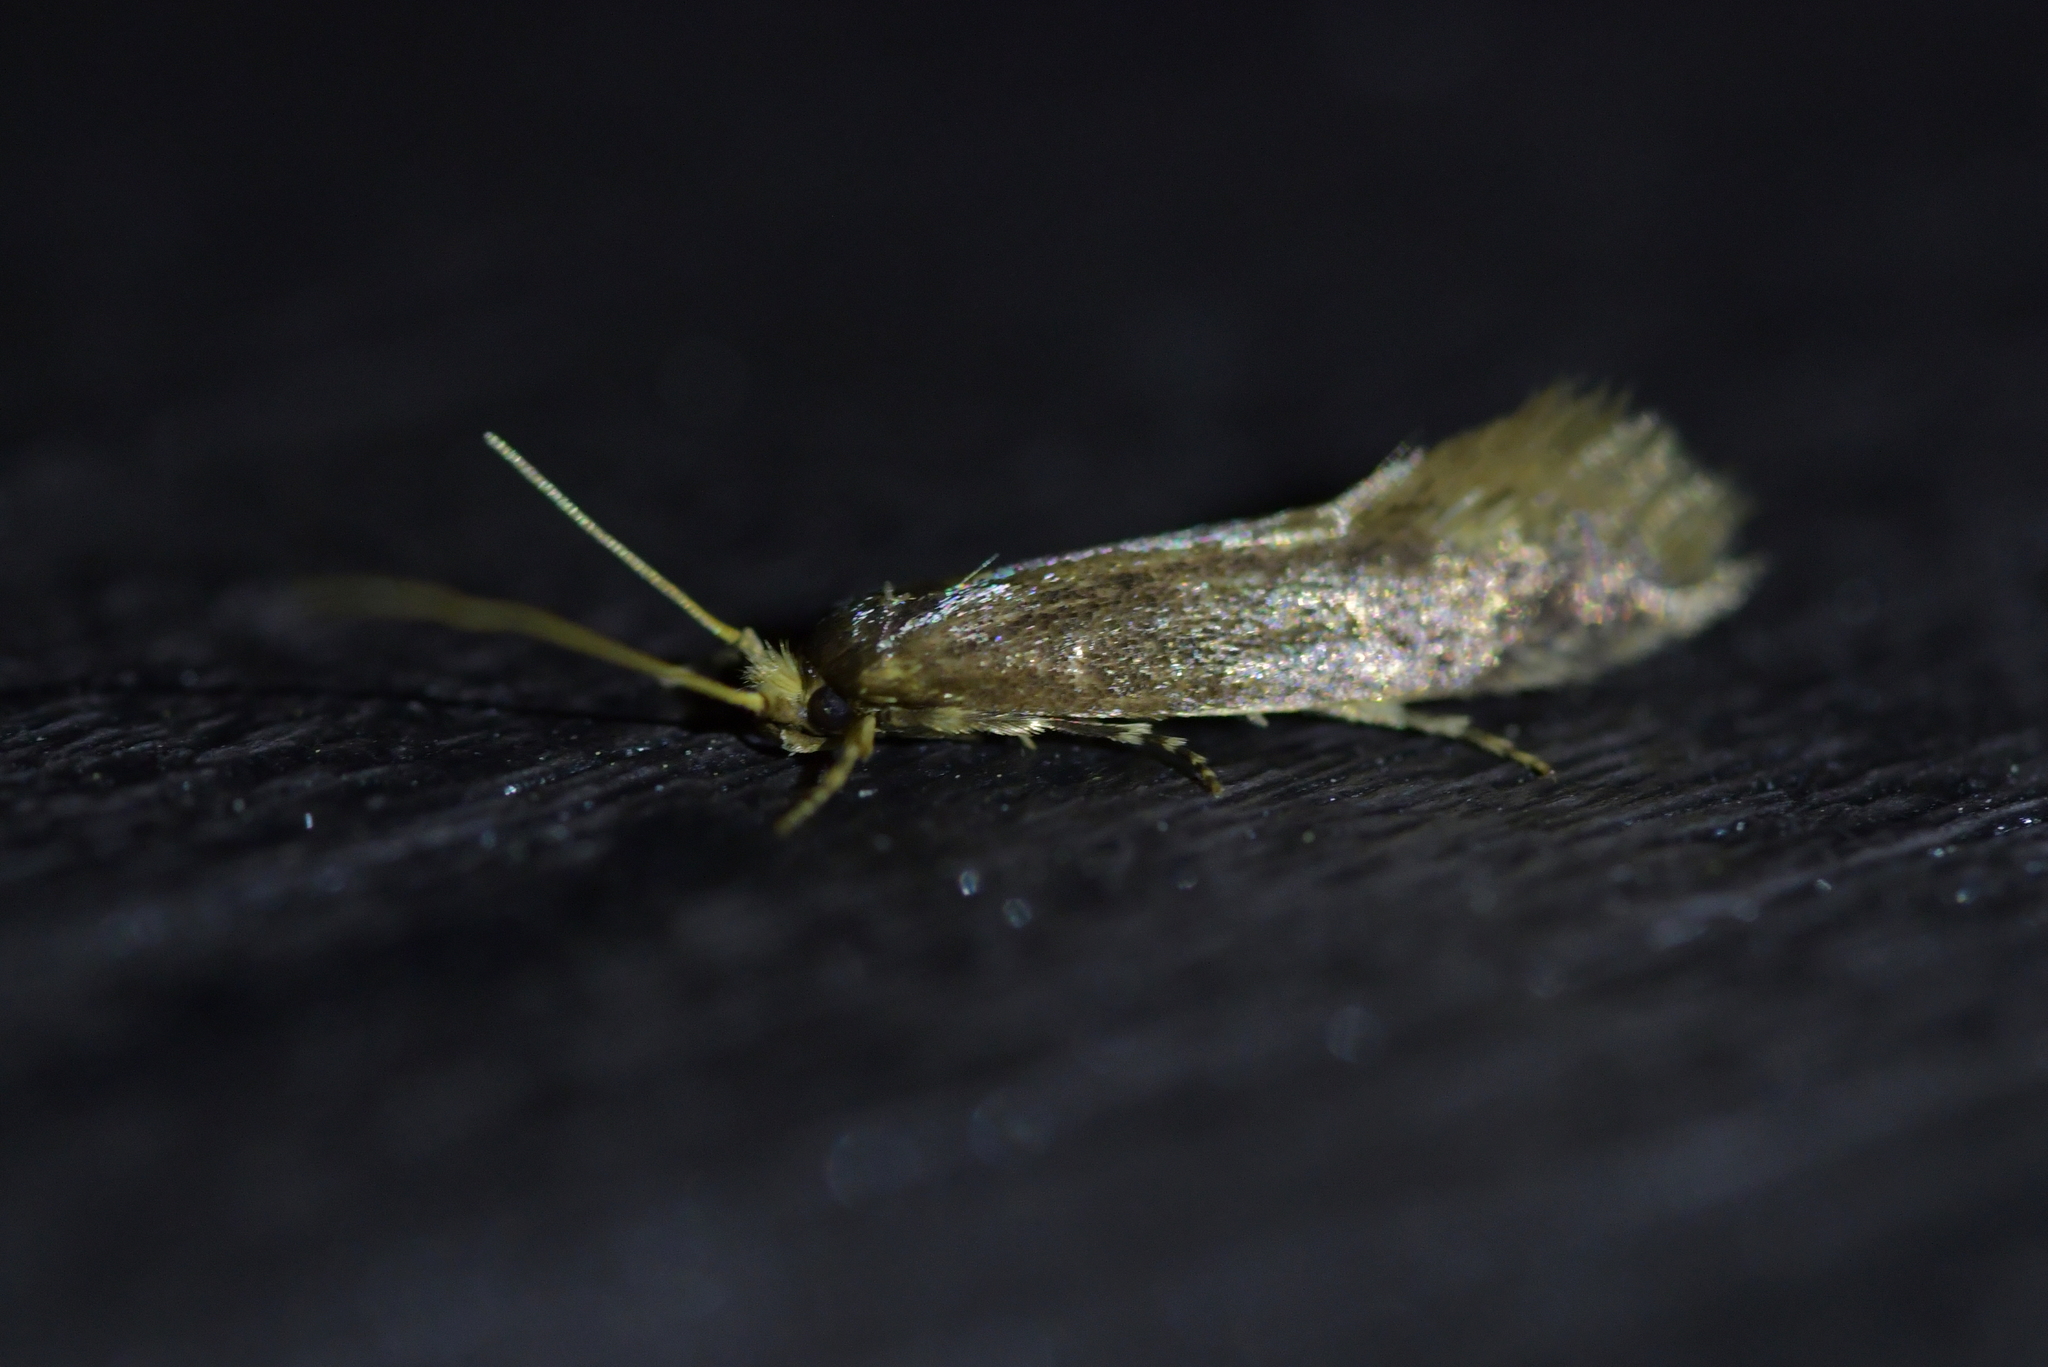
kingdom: Animalia
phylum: Arthropoda
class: Insecta
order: Lepidoptera
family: Tineidae
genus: Opogona
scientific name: Opogona omoscopa
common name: Moth
